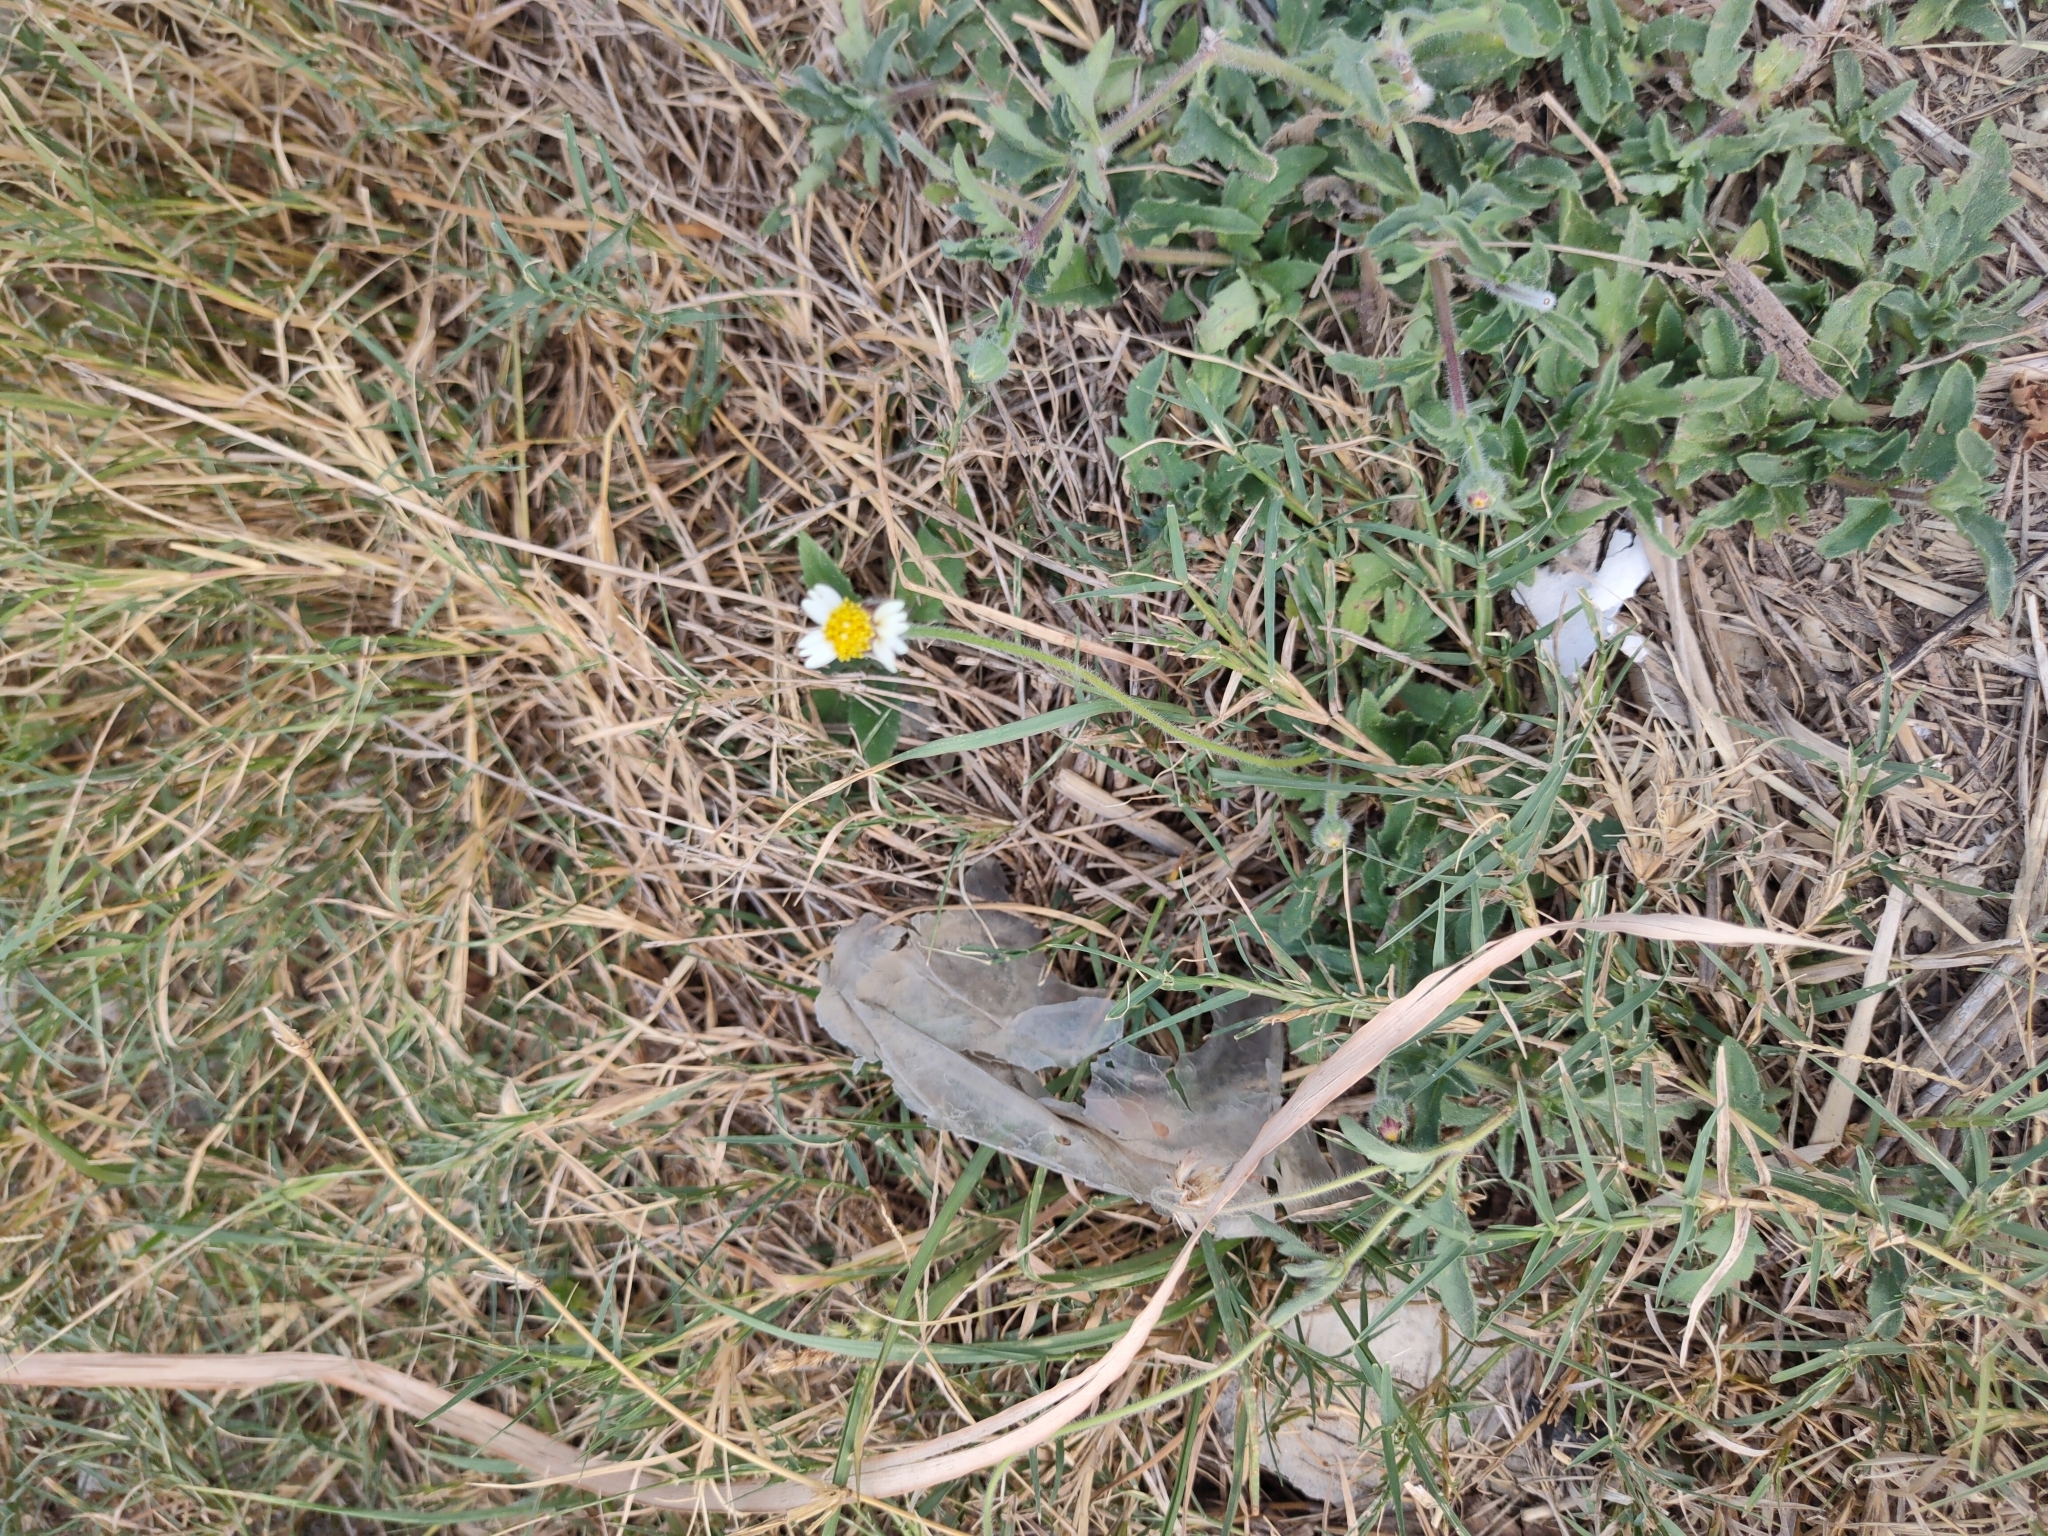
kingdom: Plantae
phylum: Tracheophyta
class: Magnoliopsida
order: Asterales
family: Asteraceae
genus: Tridax
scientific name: Tridax procumbens
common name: Coatbuttons
